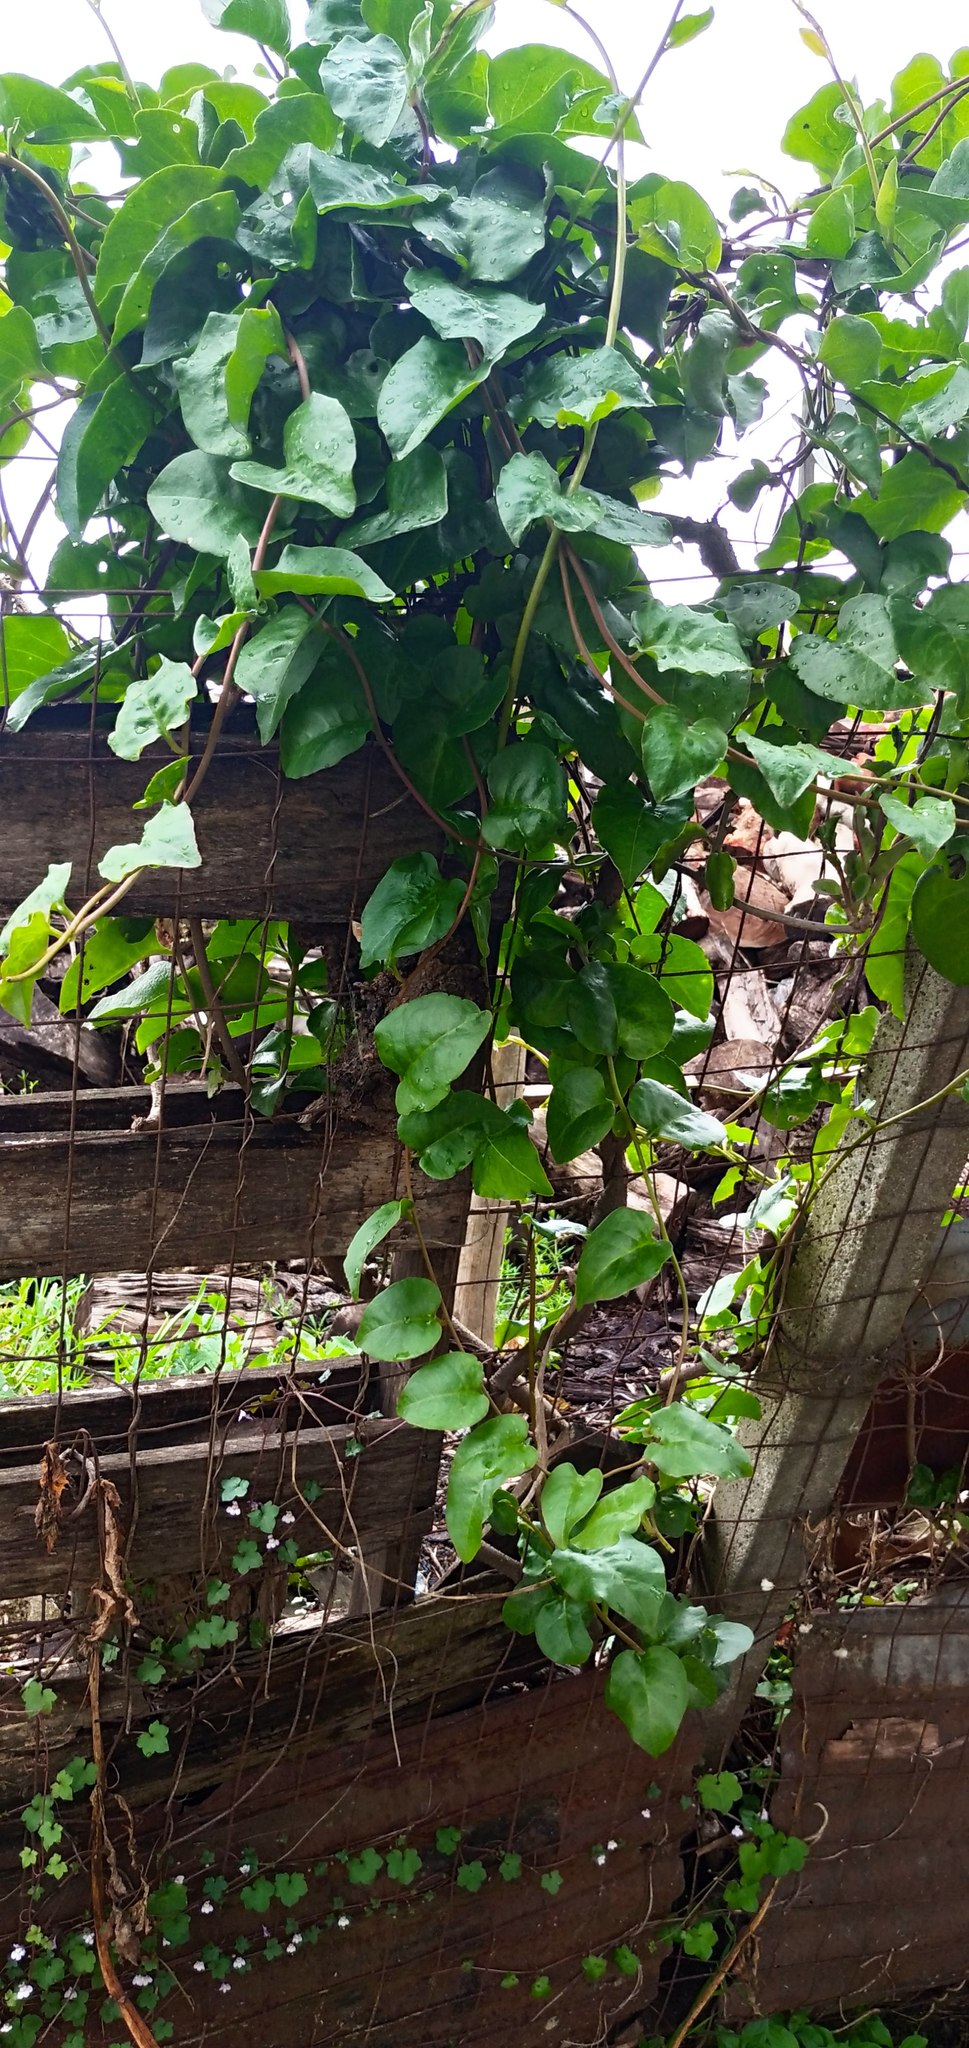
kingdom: Plantae
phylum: Tracheophyta
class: Magnoliopsida
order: Caryophyllales
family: Basellaceae
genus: Anredera
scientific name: Anredera cordifolia
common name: Heartleaf madeiravine
